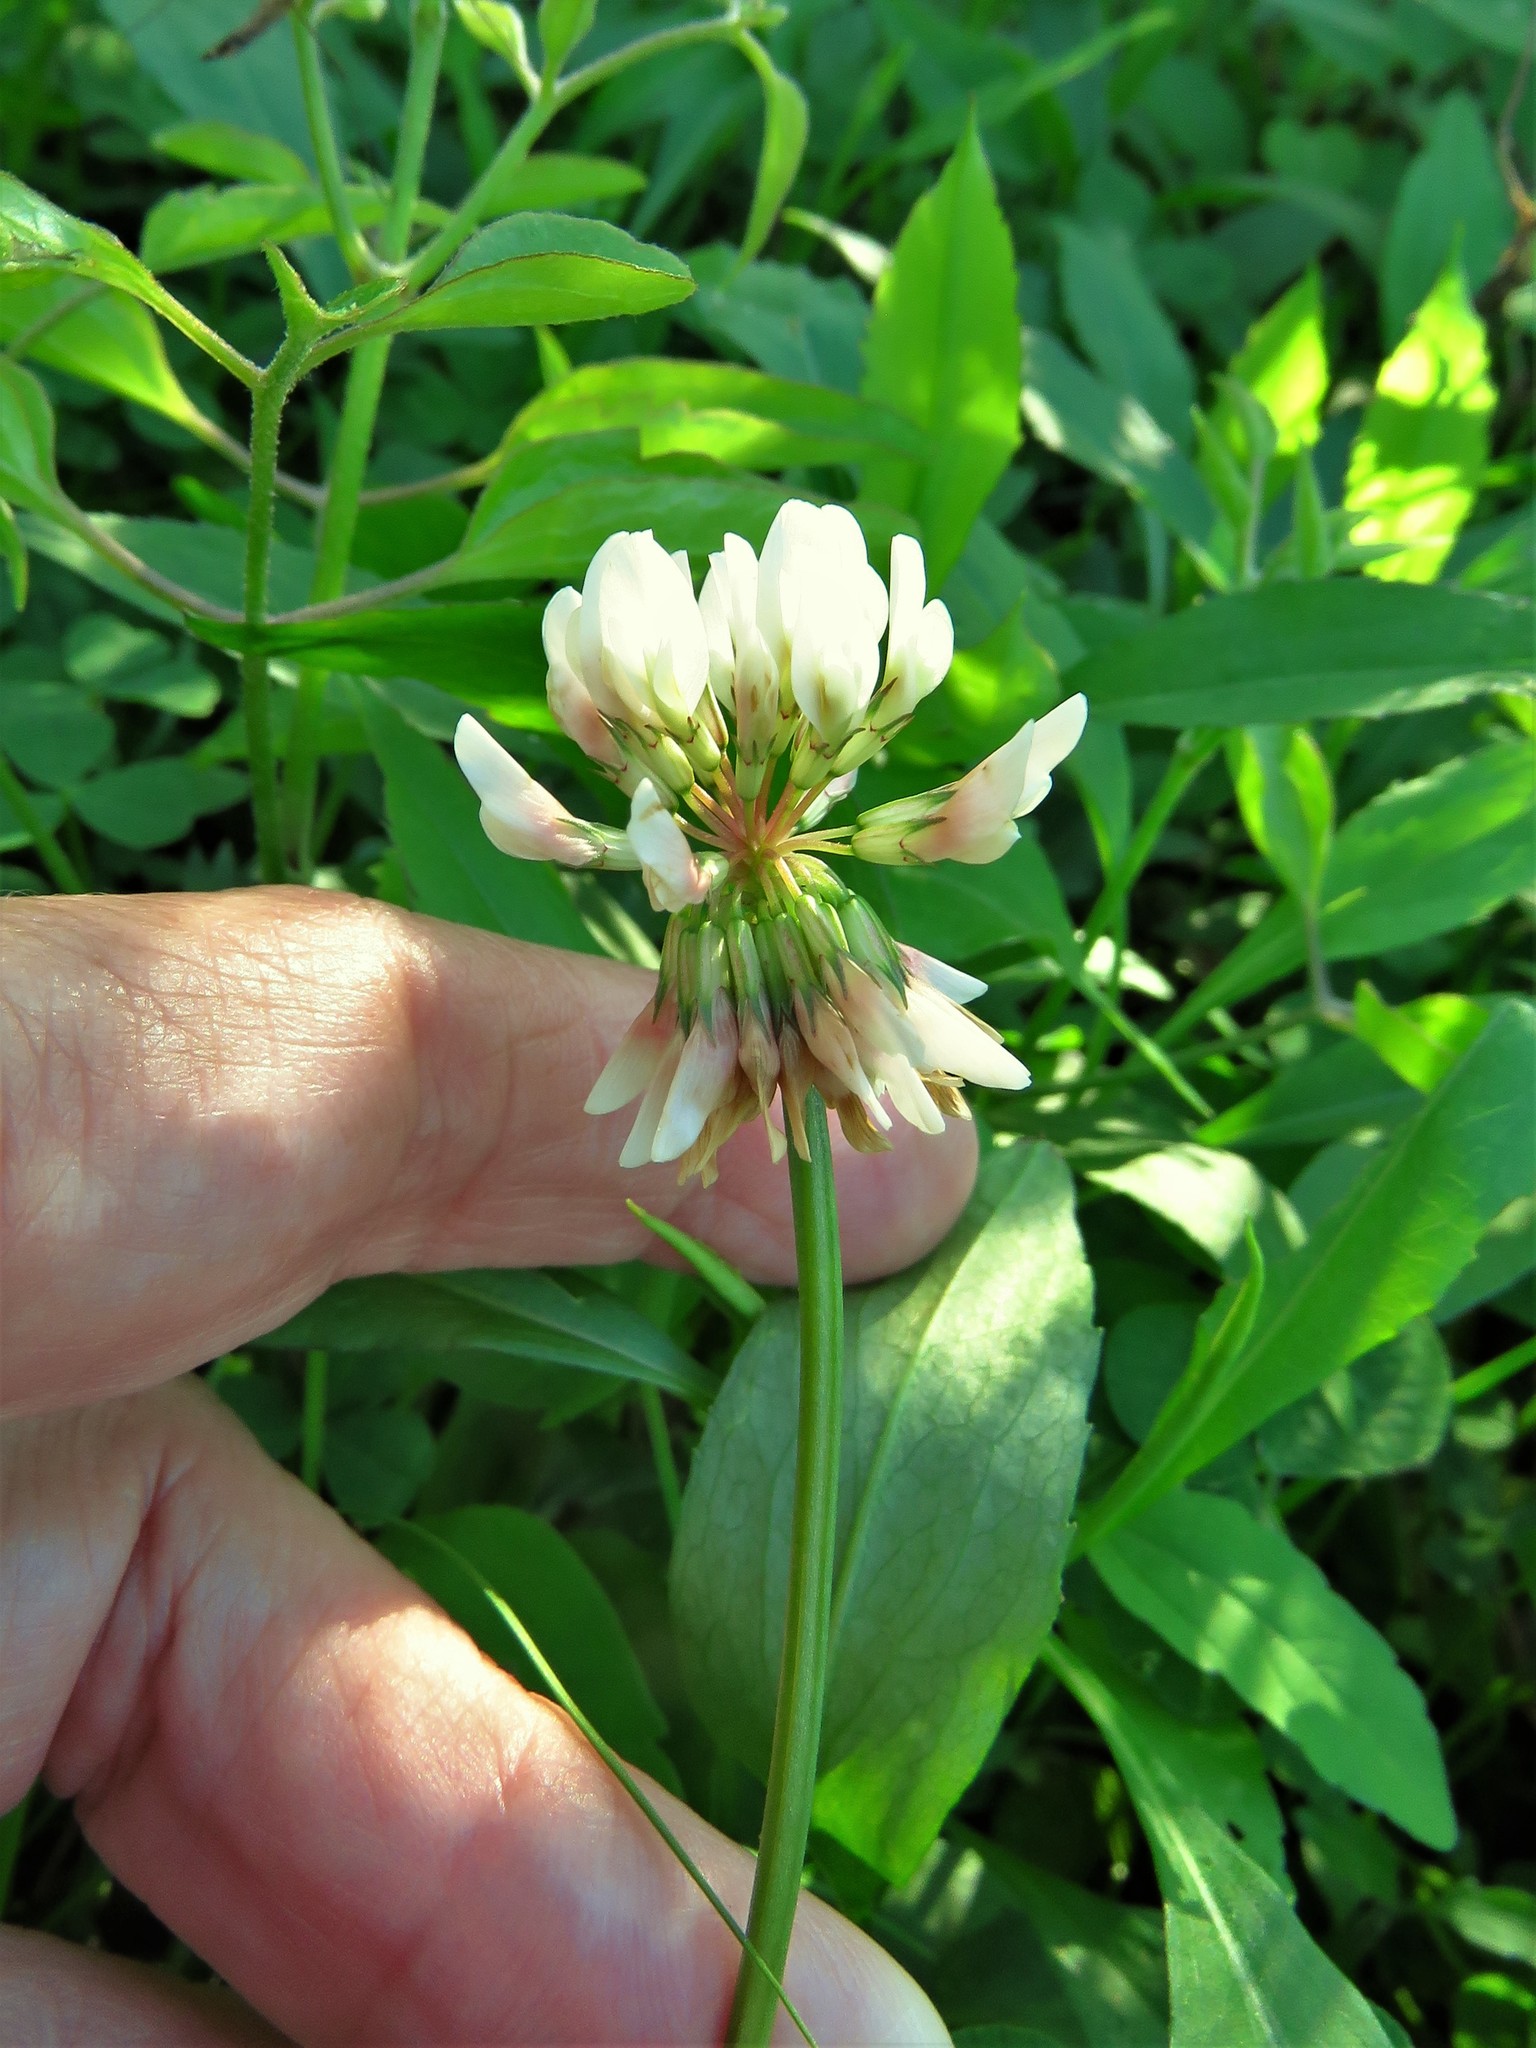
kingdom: Plantae
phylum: Tracheophyta
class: Magnoliopsida
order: Fabales
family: Fabaceae
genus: Trifolium
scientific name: Trifolium repens
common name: White clover
